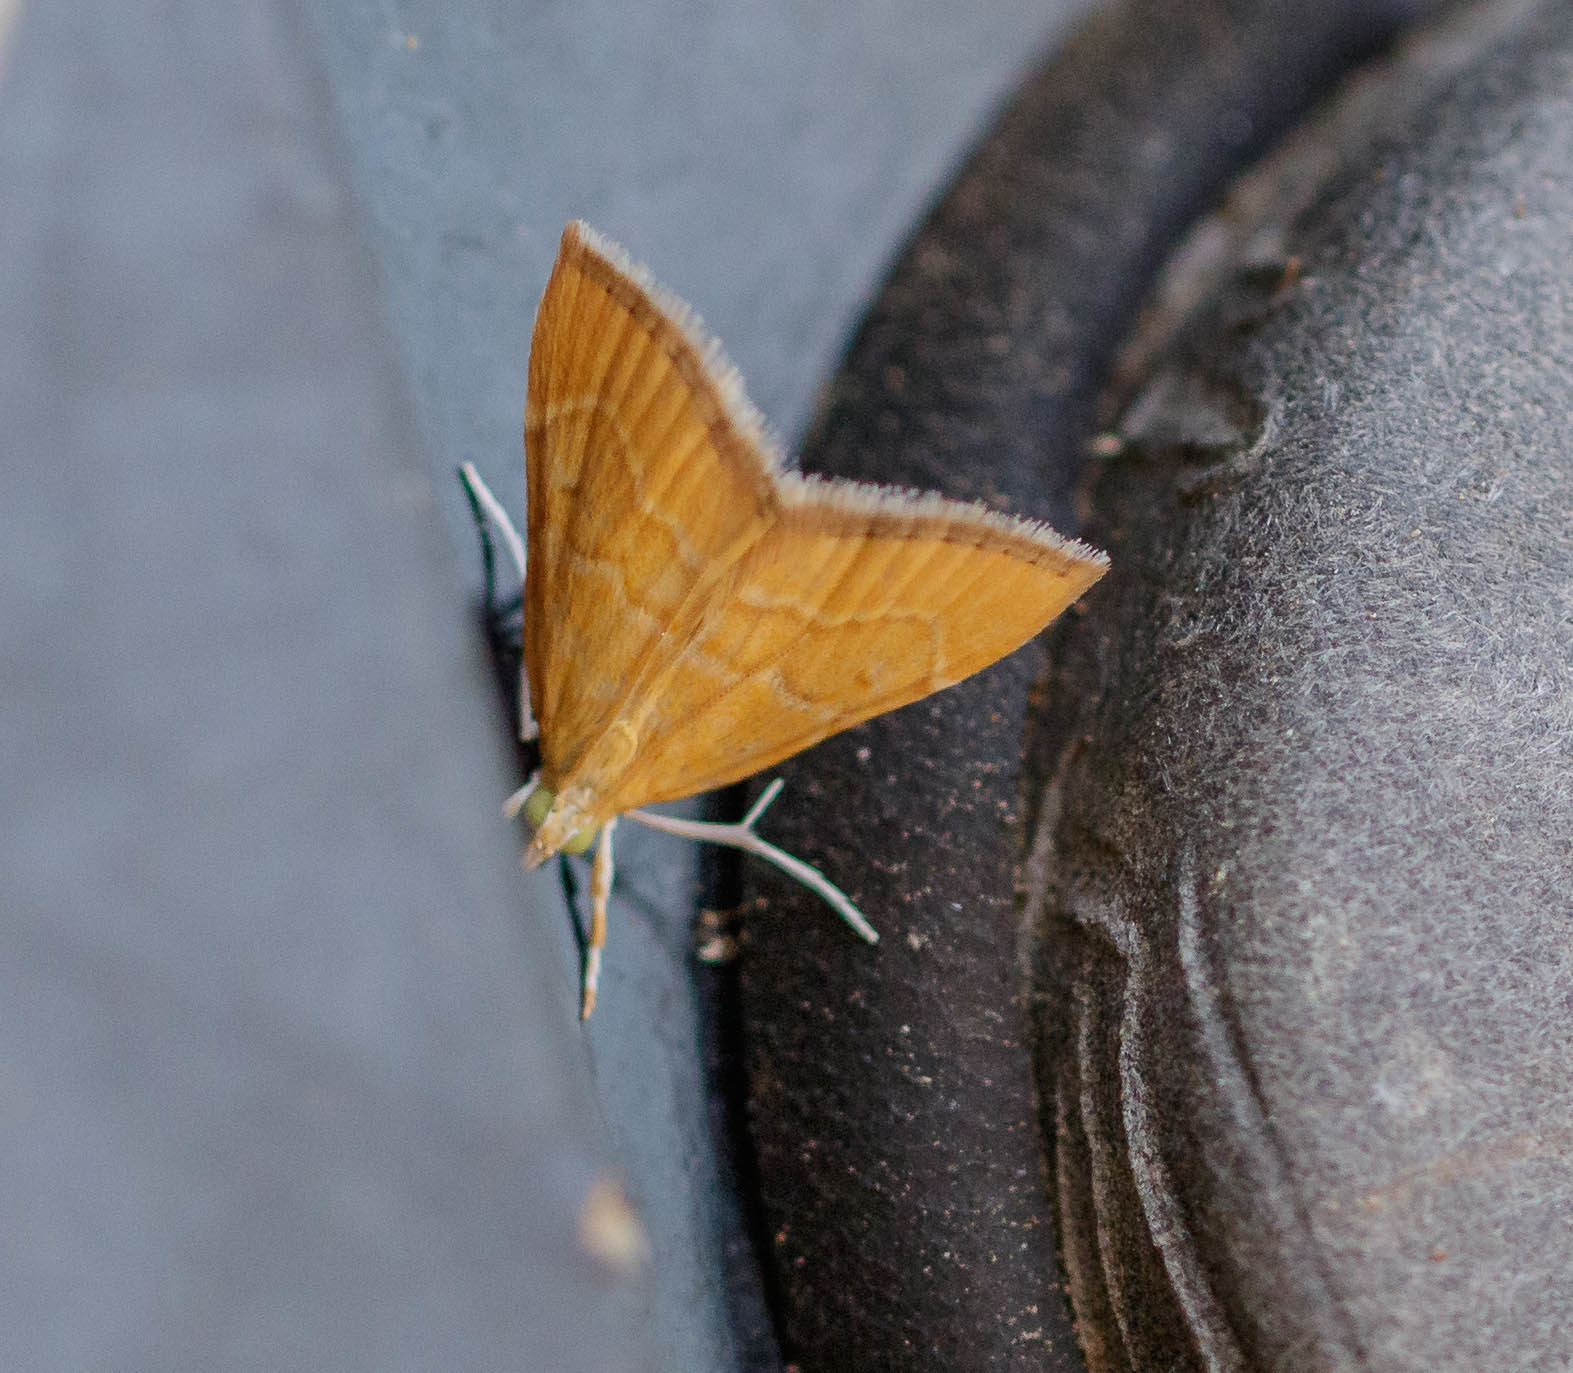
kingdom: Animalia
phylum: Arthropoda
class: Insecta
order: Lepidoptera
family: Crambidae
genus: Glaphyria
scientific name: Glaphyria invisalis
